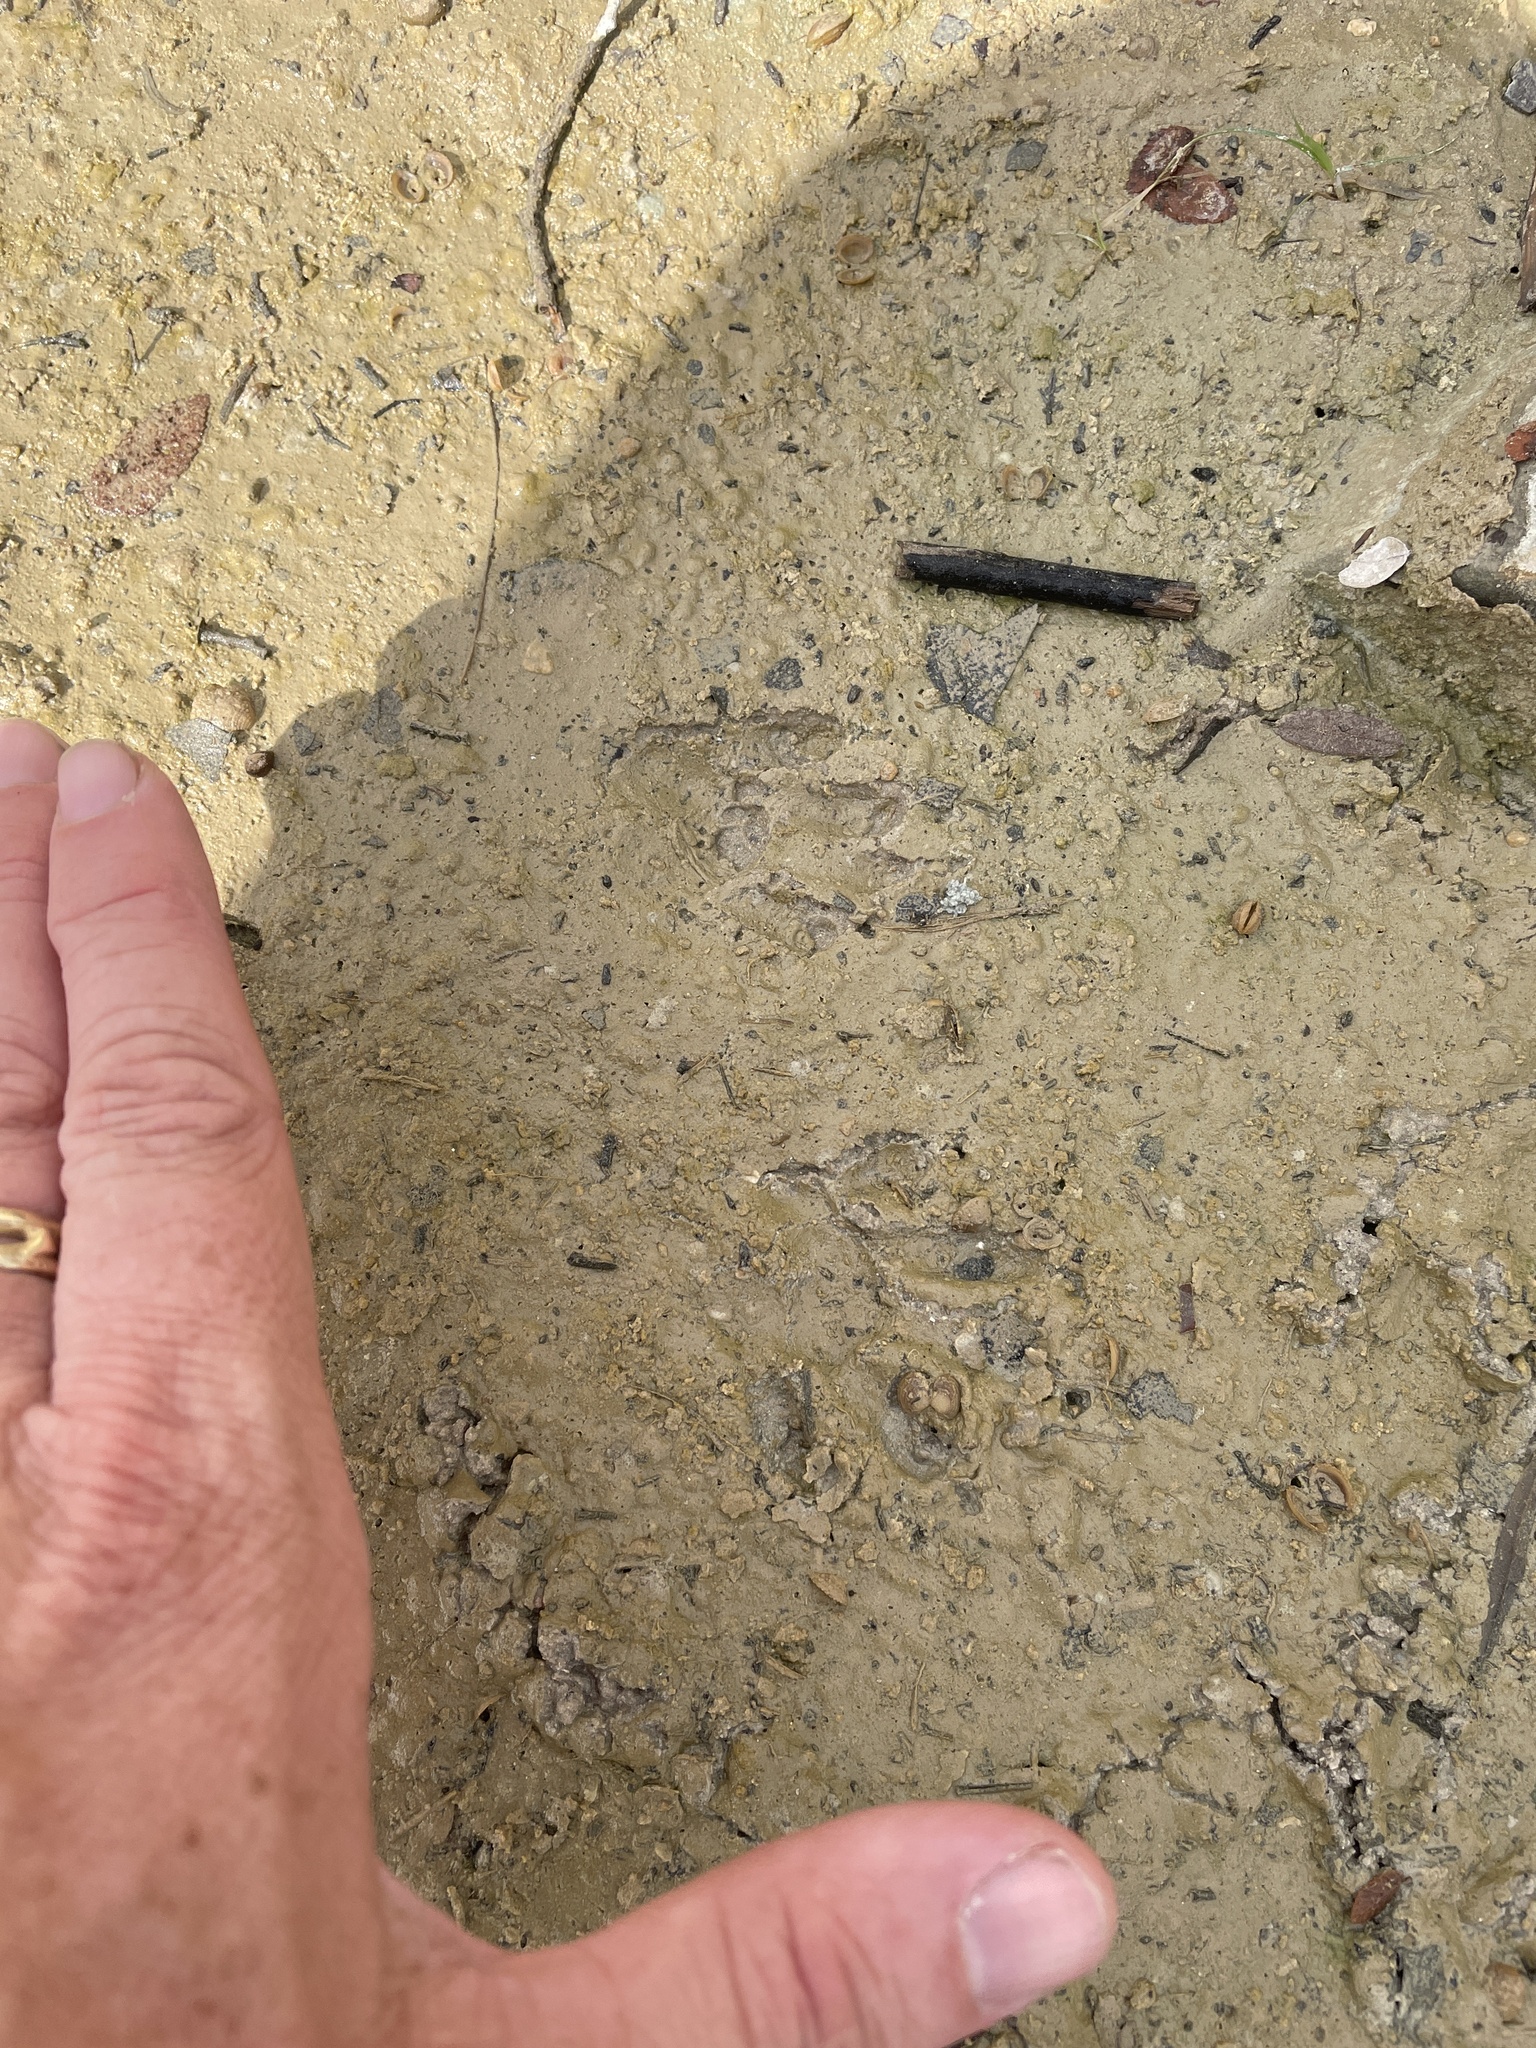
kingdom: Animalia
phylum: Chordata
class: Mammalia
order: Carnivora
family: Procyonidae
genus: Procyon
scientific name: Procyon lotor
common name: Raccoon
